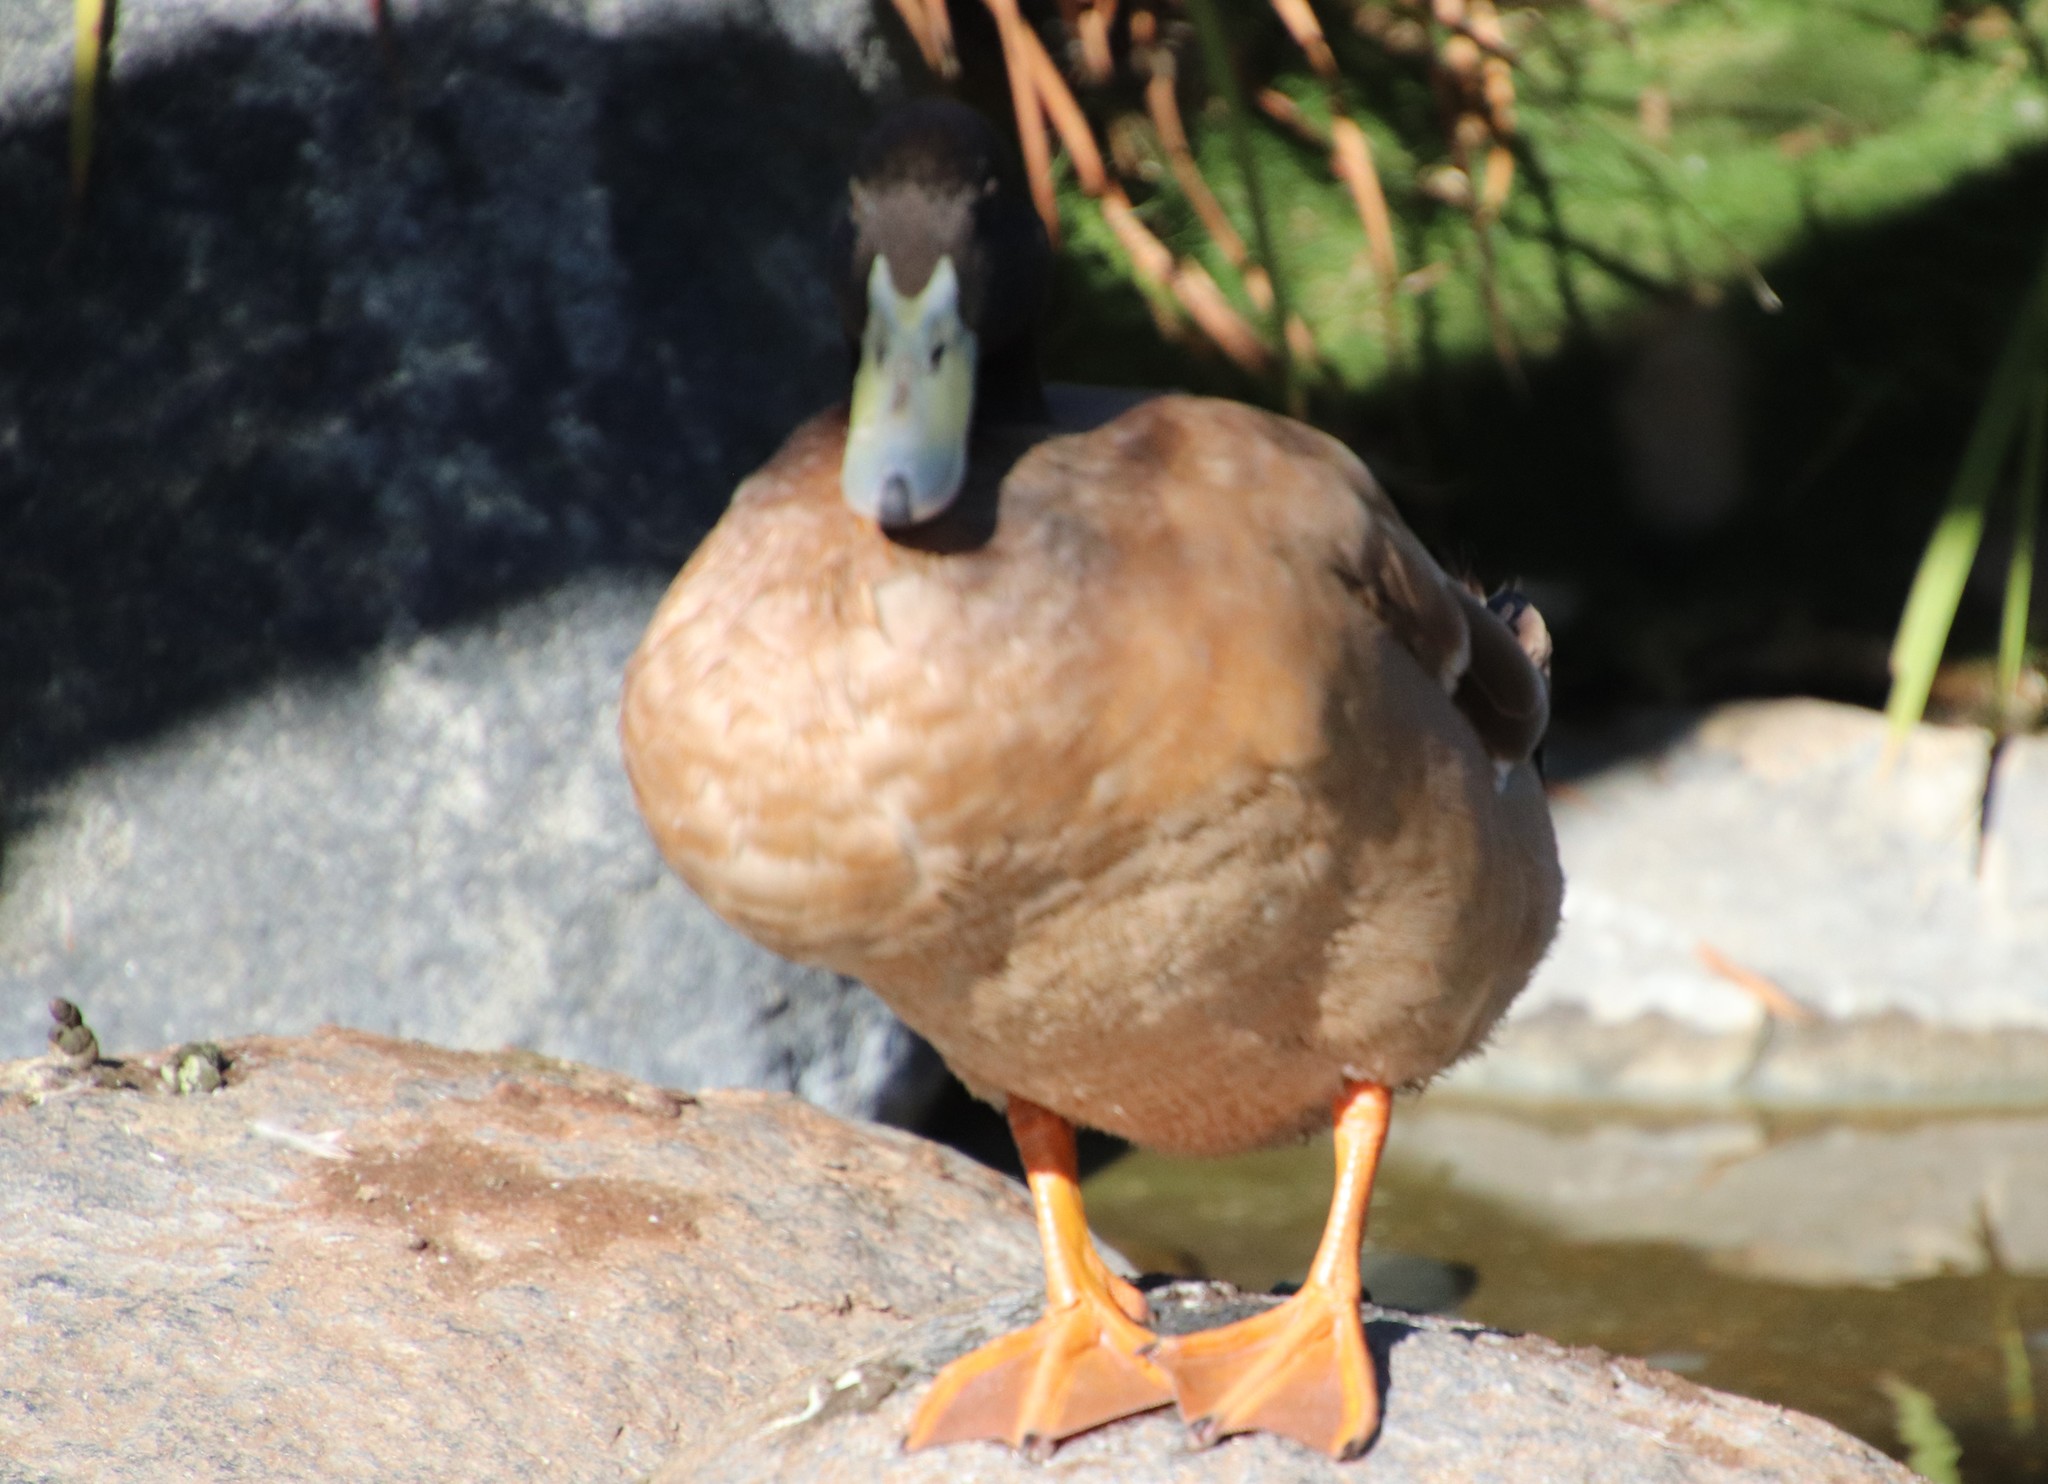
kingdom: Animalia
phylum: Chordata
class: Aves
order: Anseriformes
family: Anatidae
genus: Anas
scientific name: Anas platyrhynchos
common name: Mallard
